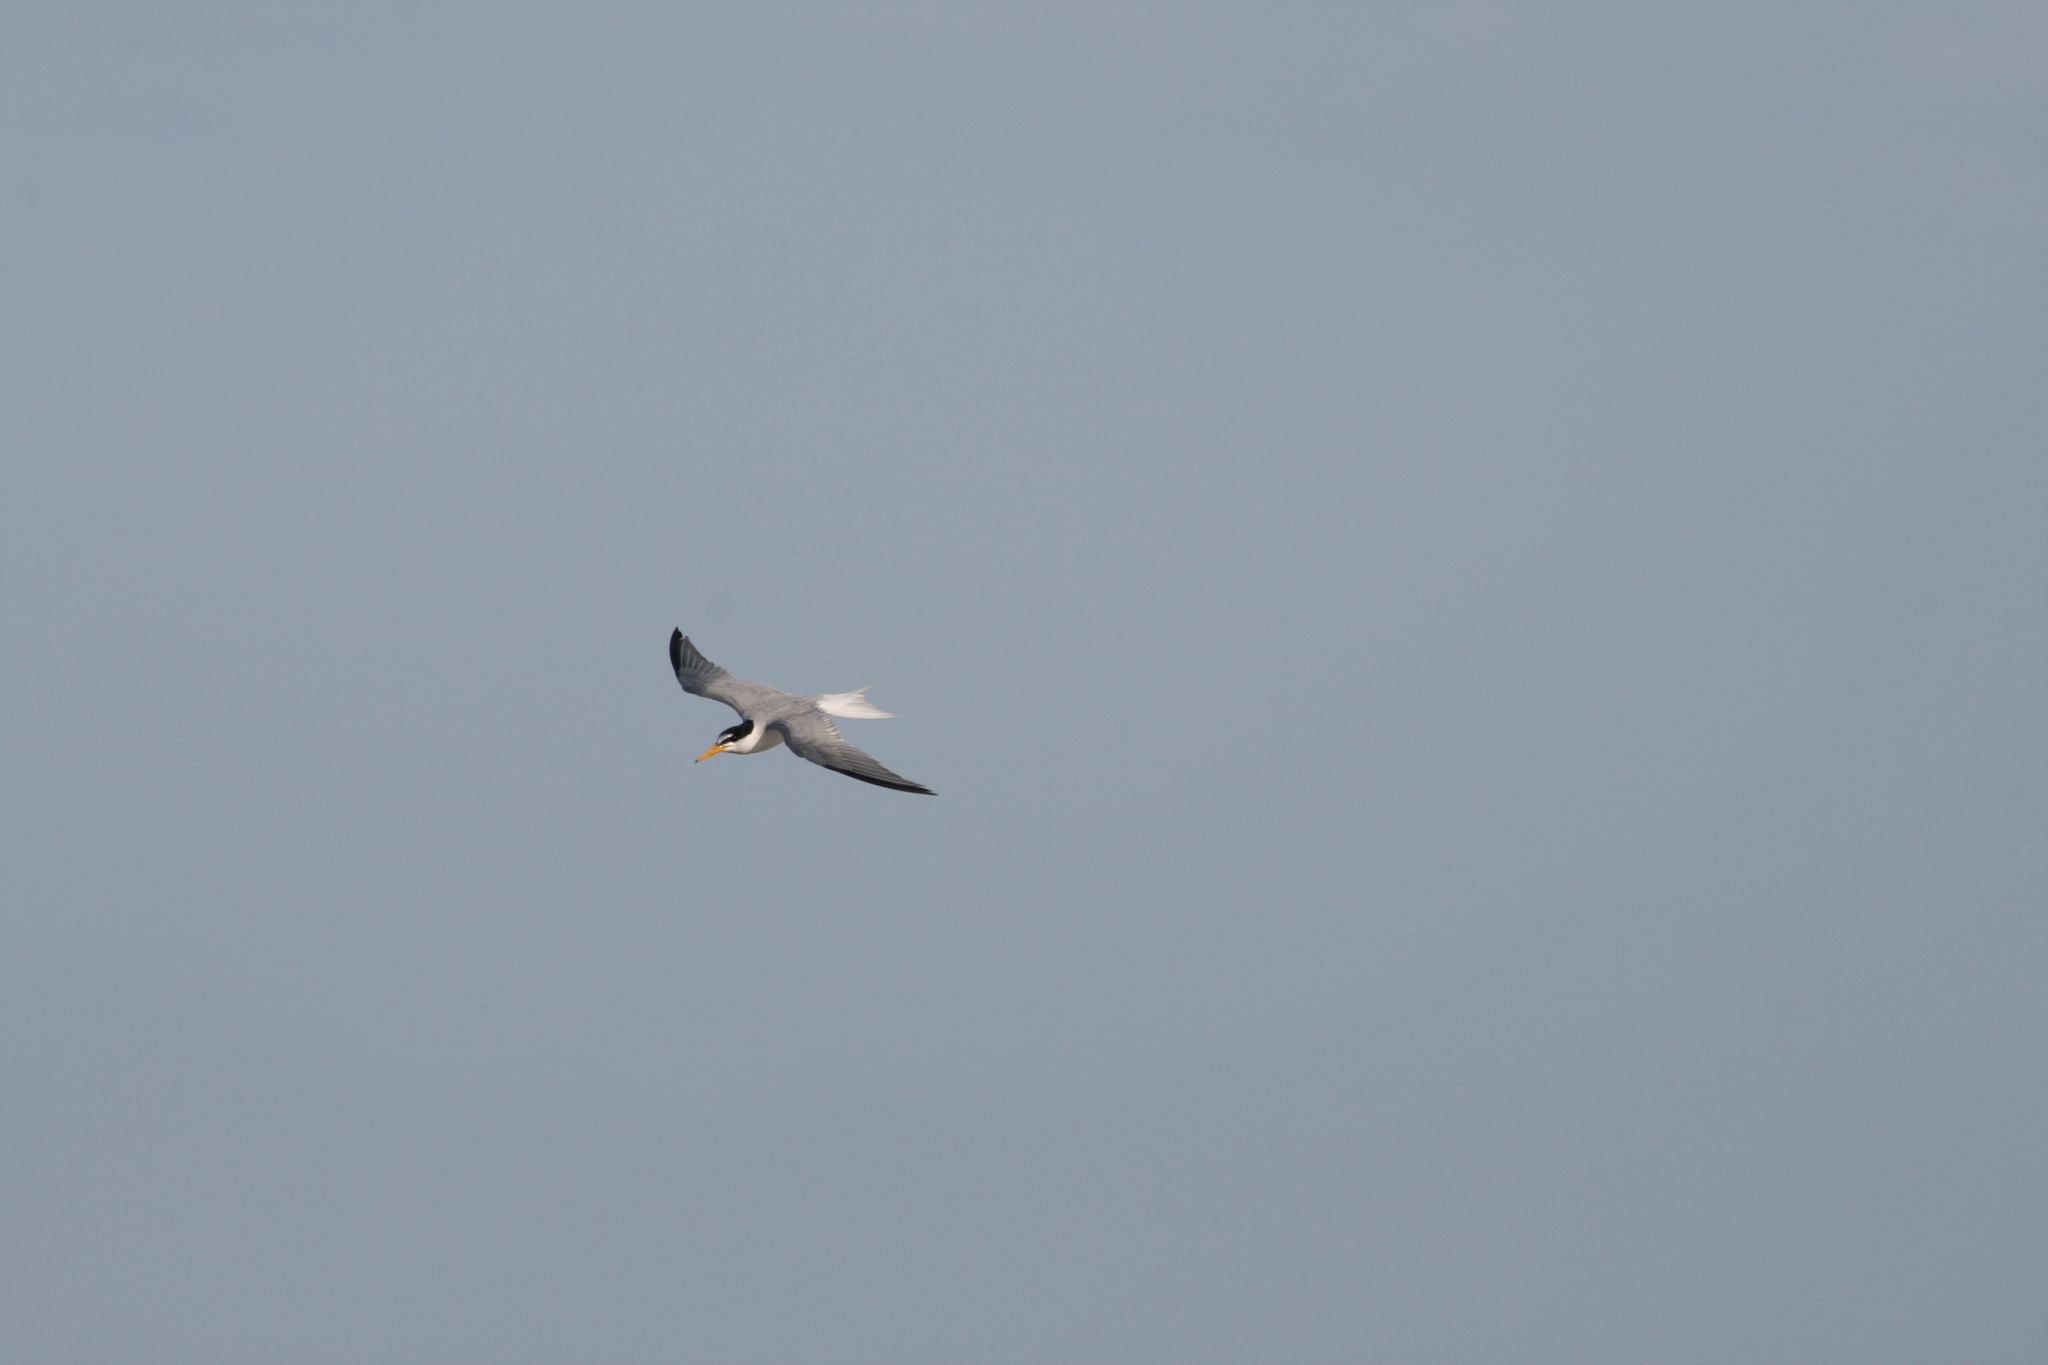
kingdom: Animalia
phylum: Chordata
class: Aves
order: Charadriiformes
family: Laridae
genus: Sternula
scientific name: Sternula albifrons
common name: Little tern
